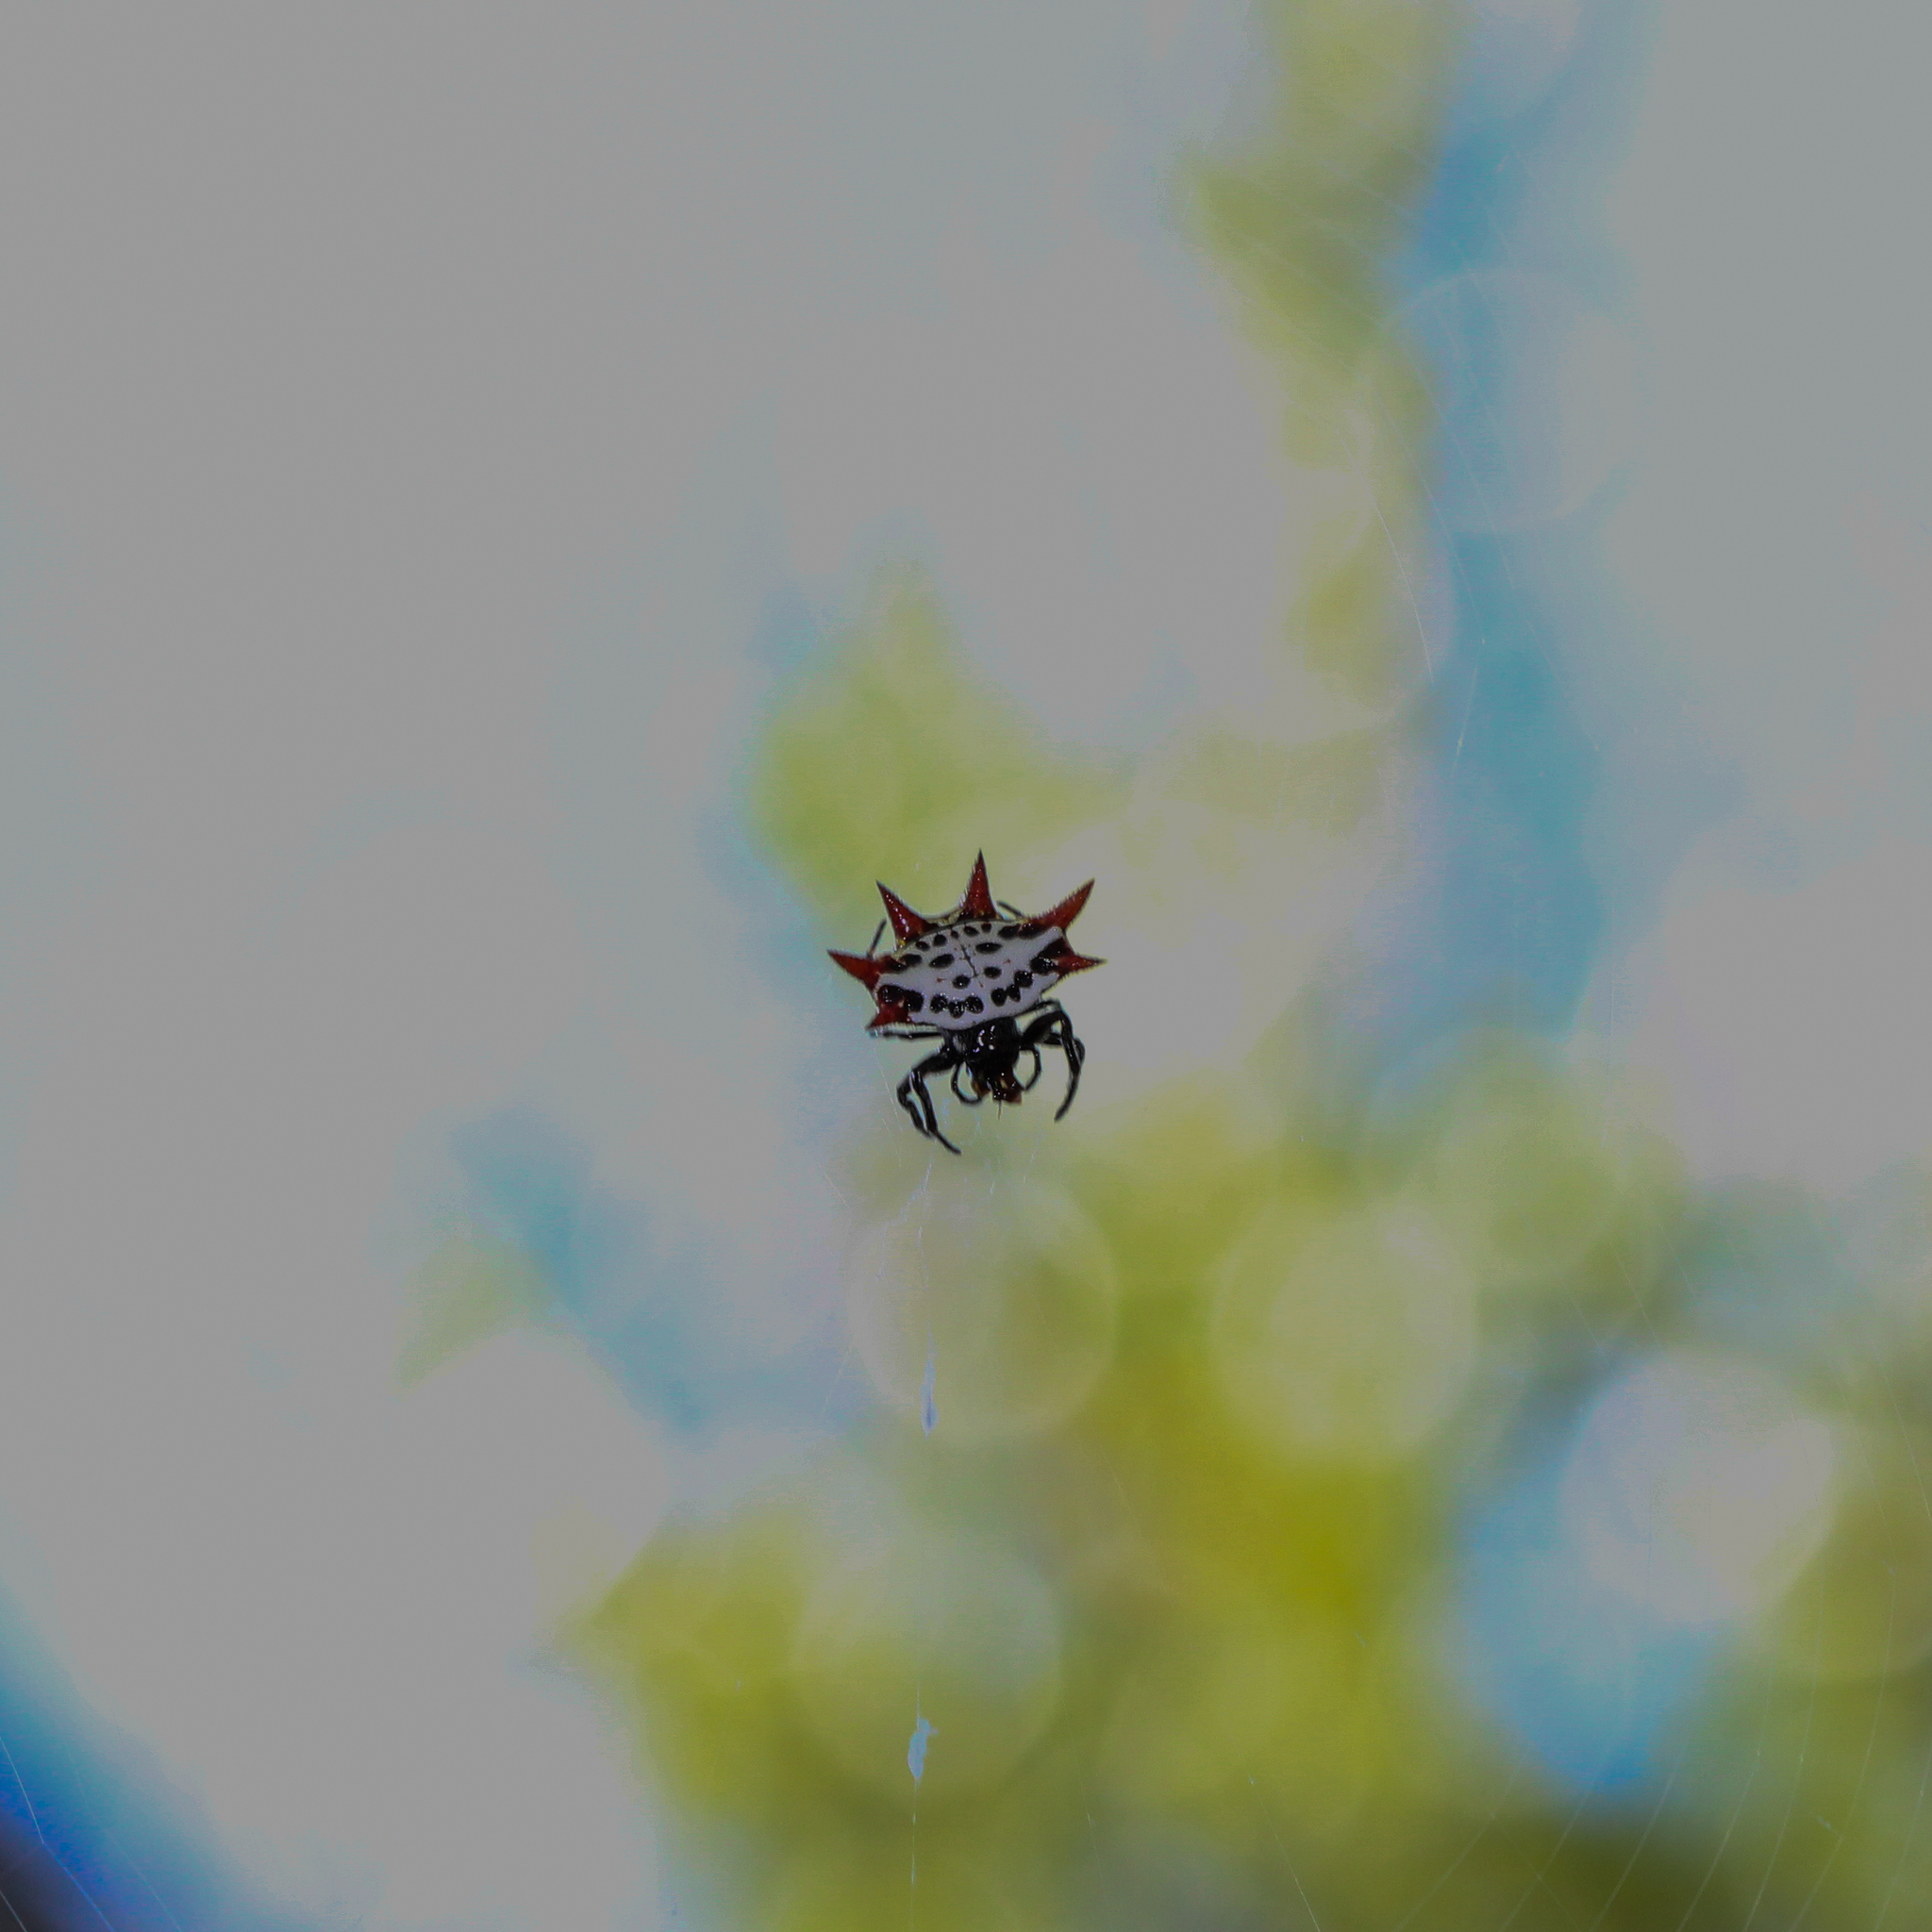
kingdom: Animalia
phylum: Arthropoda
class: Arachnida
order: Araneae
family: Araneidae
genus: Gasteracantha
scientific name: Gasteracantha cancriformis
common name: Orb weavers
